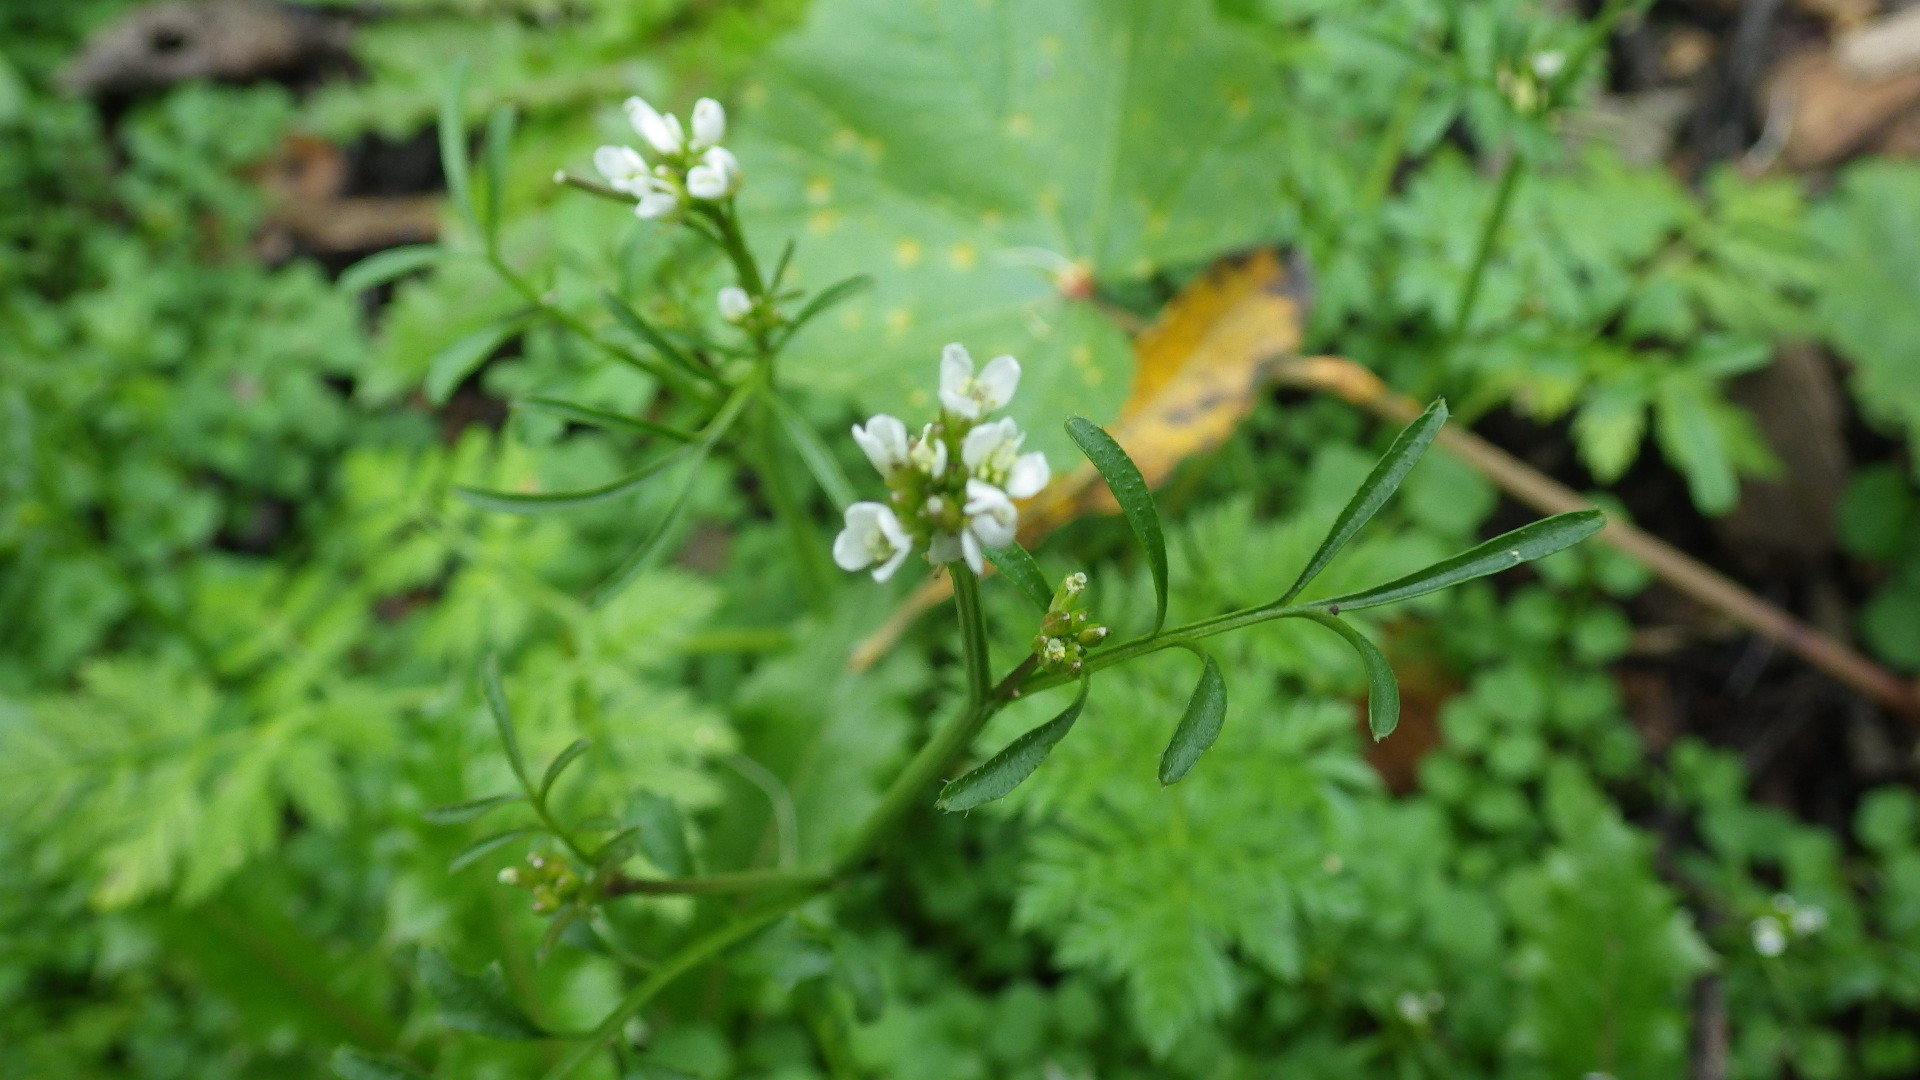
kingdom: Plantae
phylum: Tracheophyta
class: Magnoliopsida
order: Brassicales
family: Brassicaceae
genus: Cardamine
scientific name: Cardamine hirsuta
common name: Hairy bittercress
